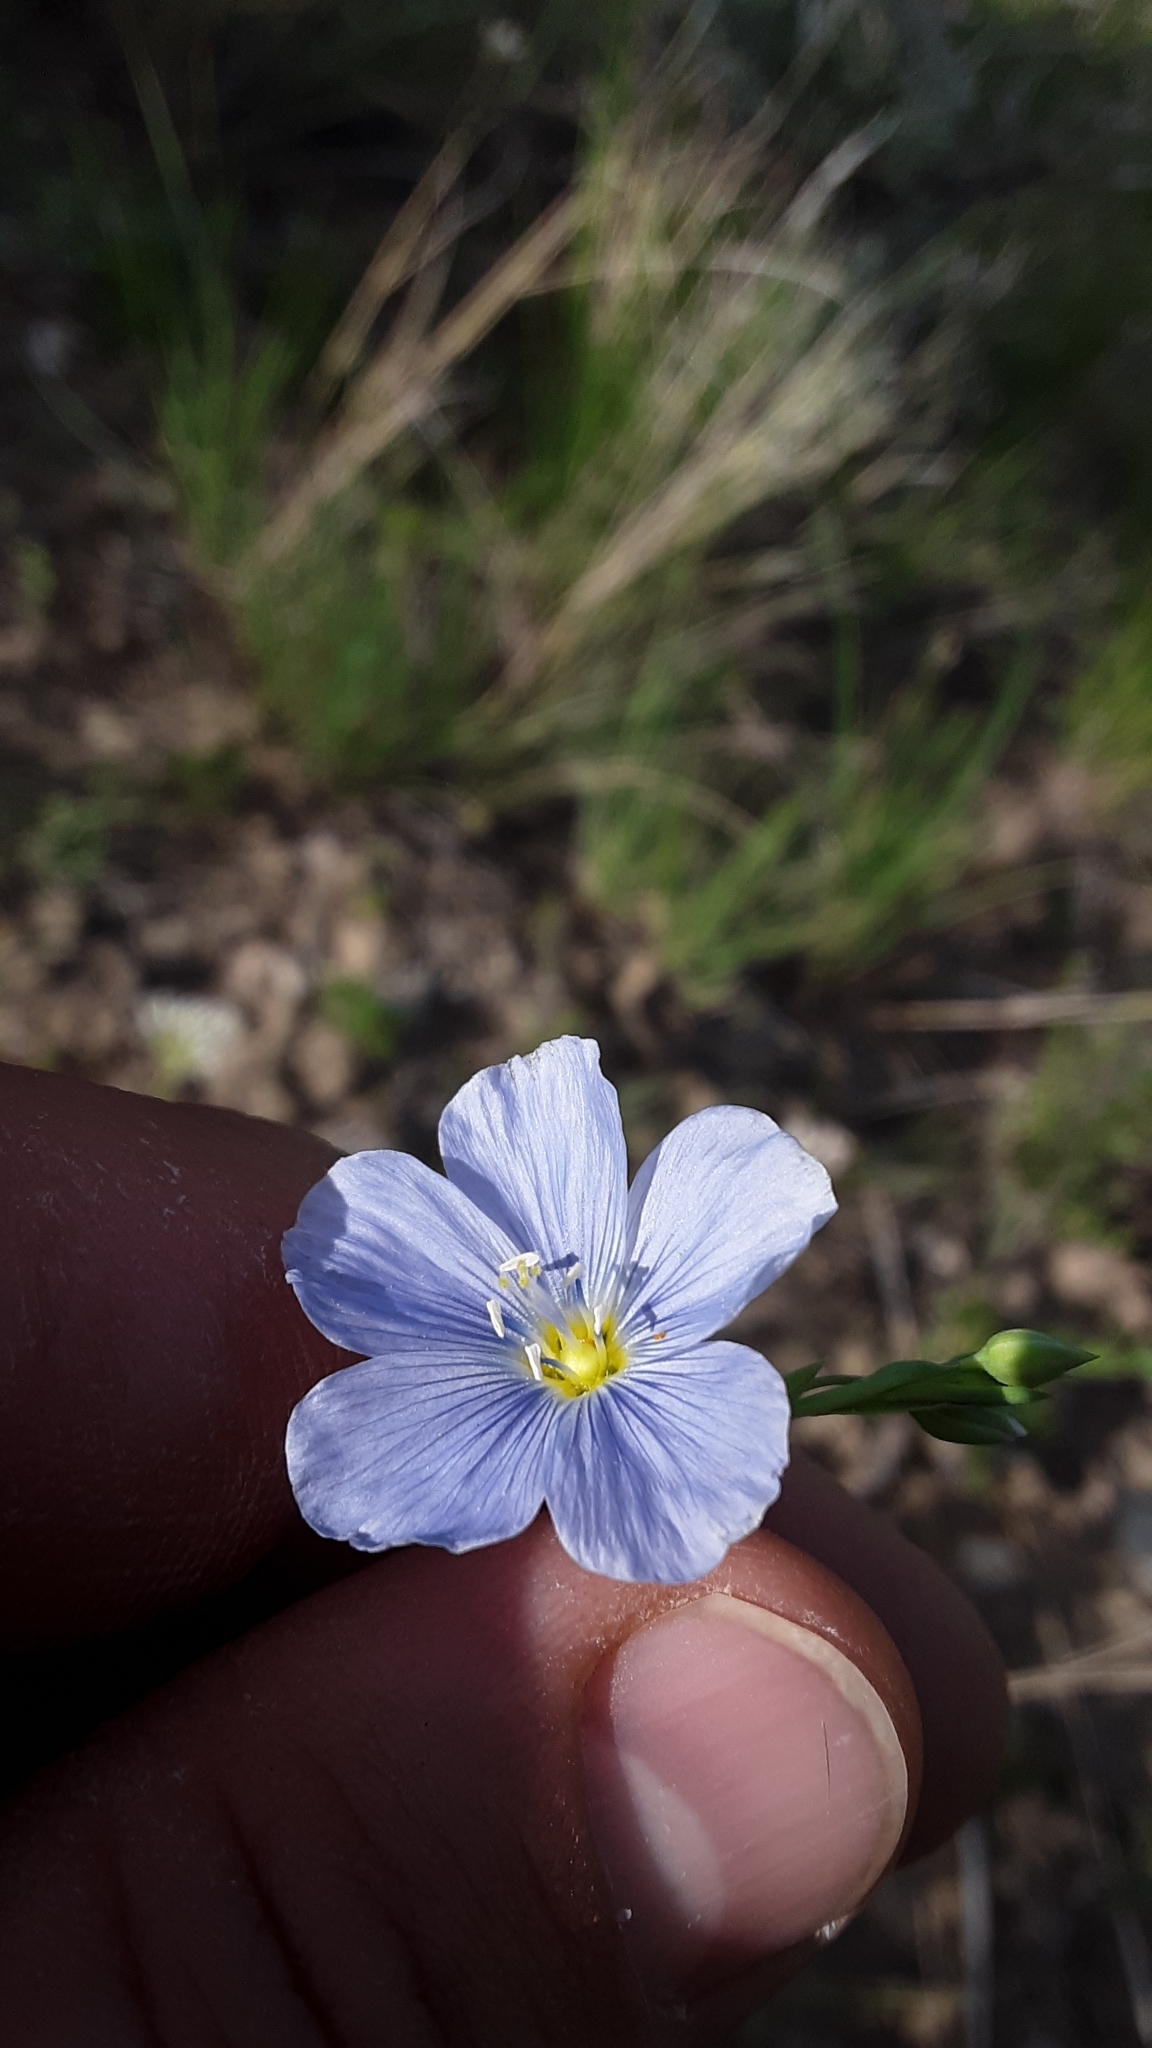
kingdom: Plantae
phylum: Tracheophyta
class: Magnoliopsida
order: Malpighiales
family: Linaceae
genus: Linum
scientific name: Linum lewisii
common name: Prairie flax
